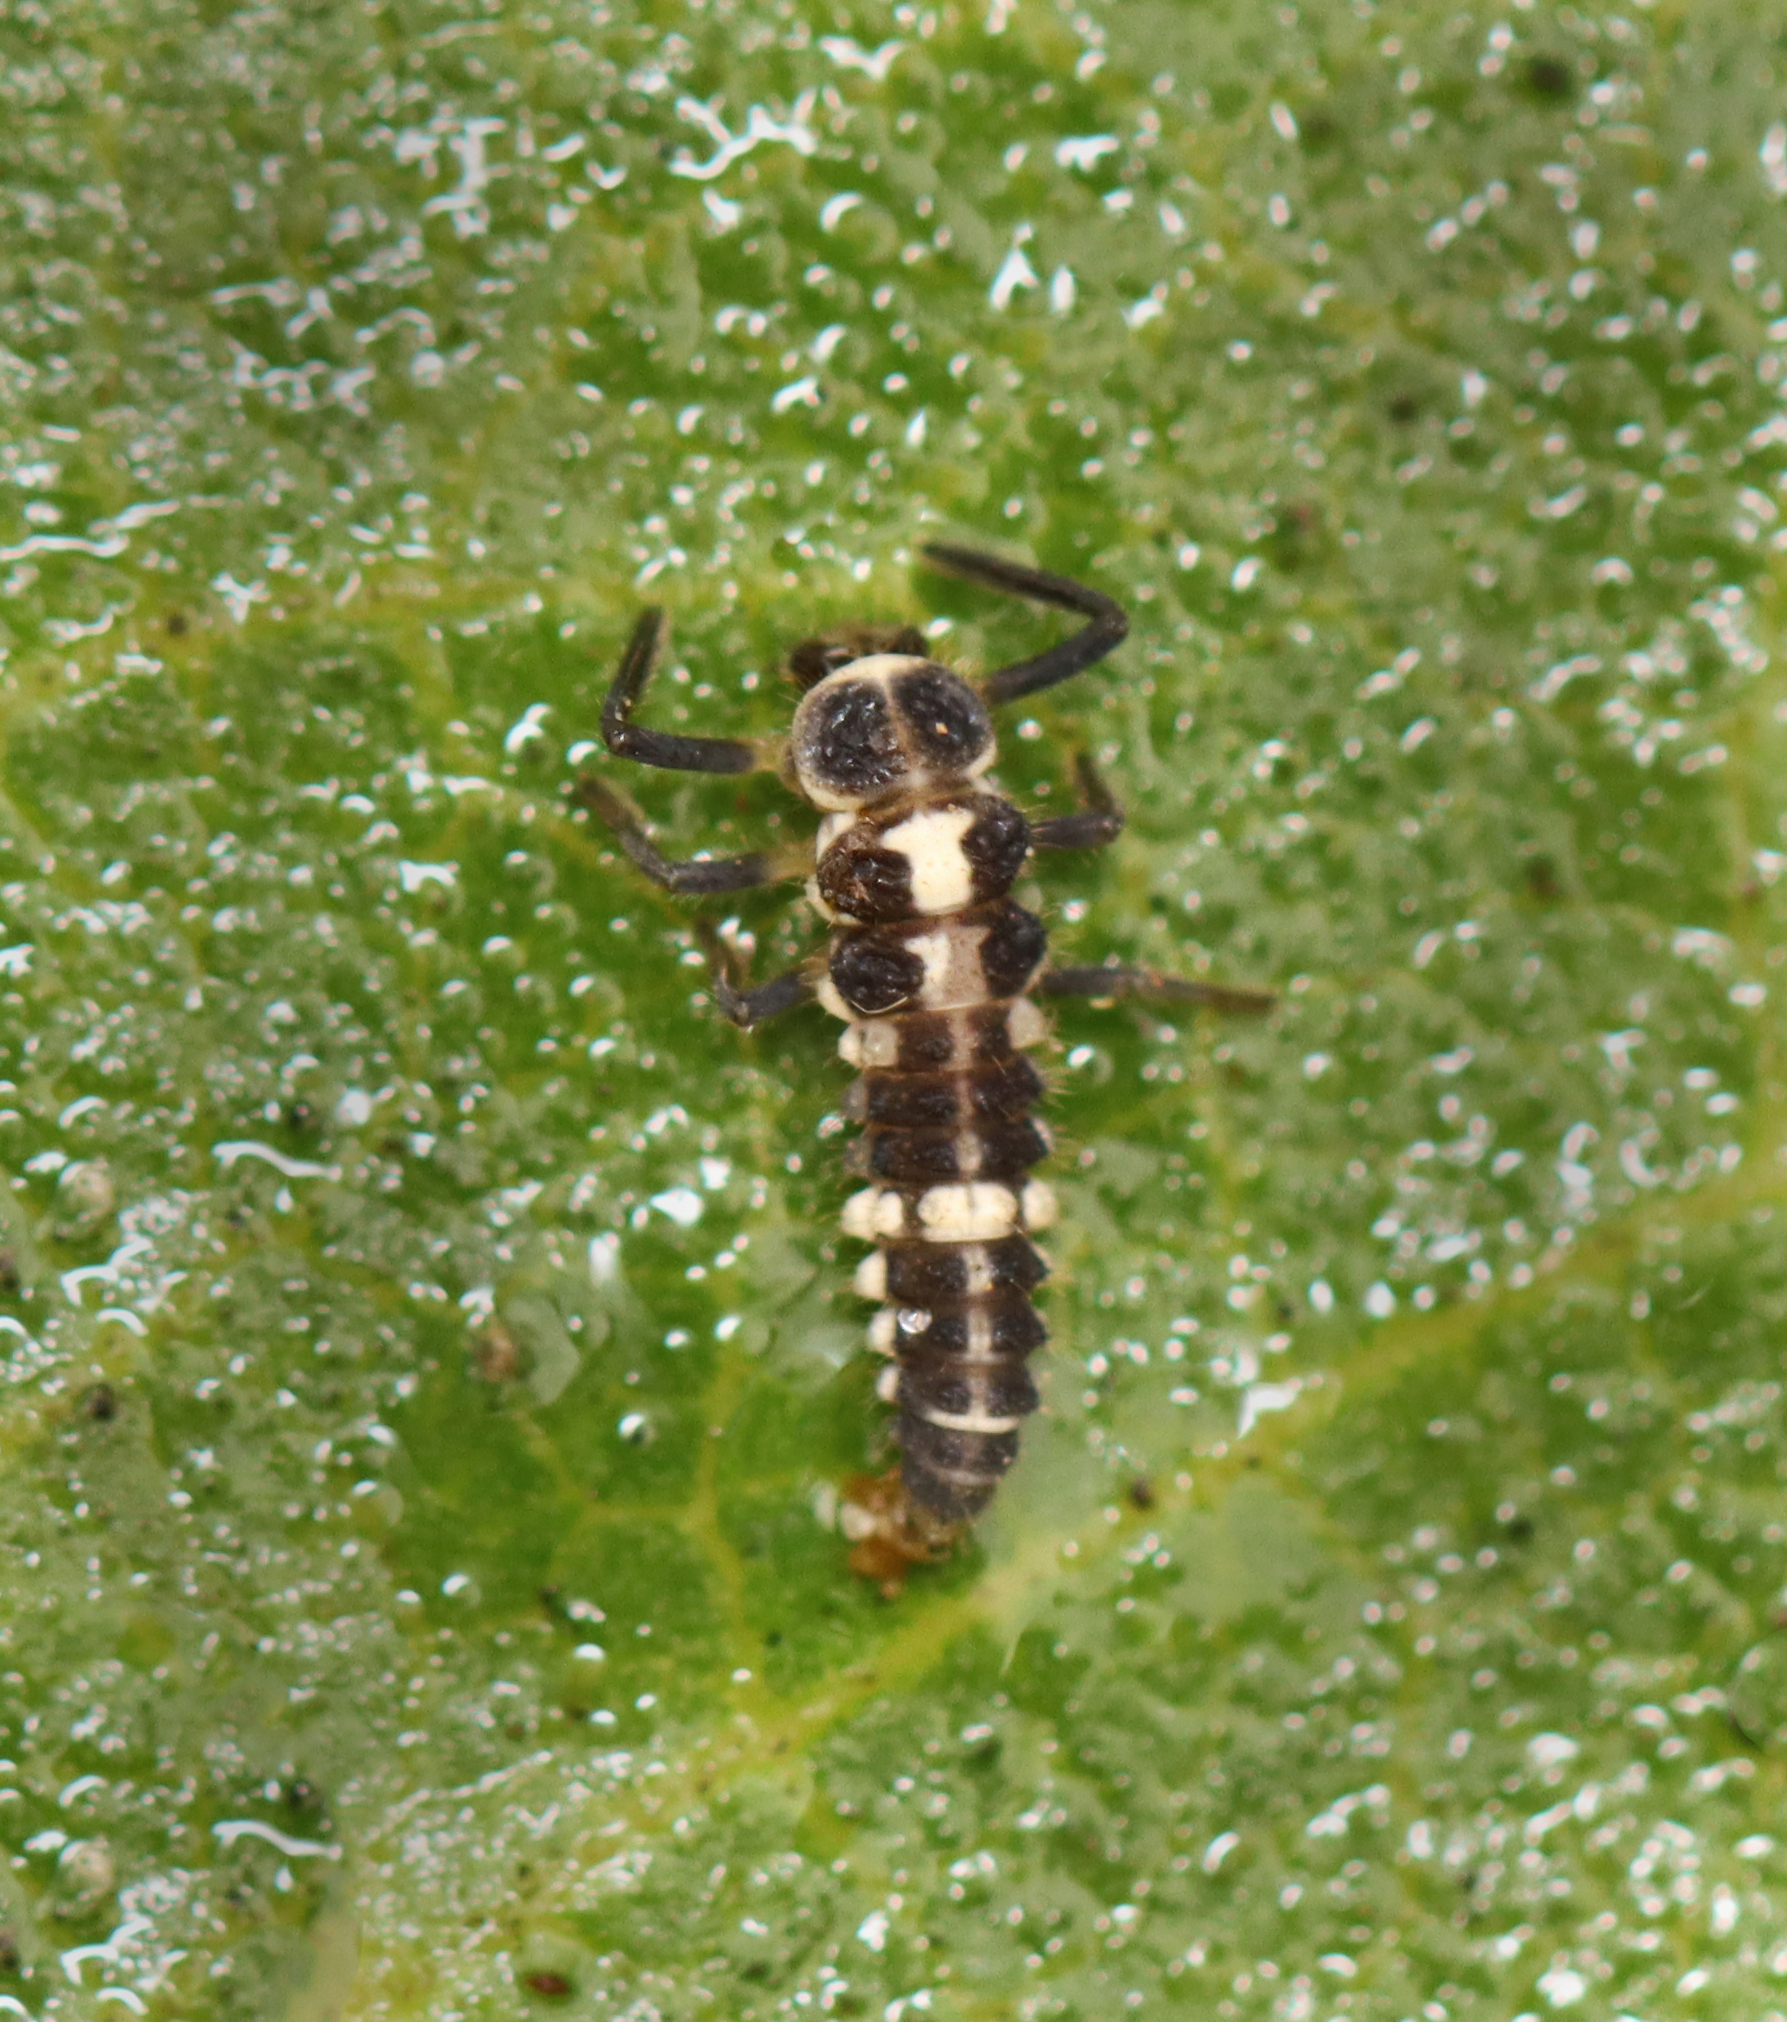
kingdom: Animalia
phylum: Arthropoda
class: Insecta
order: Coleoptera
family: Coccinellidae
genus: Propylaea
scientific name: Propylaea quatuordecimpunctata
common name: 14-spotted ladybird beetle
